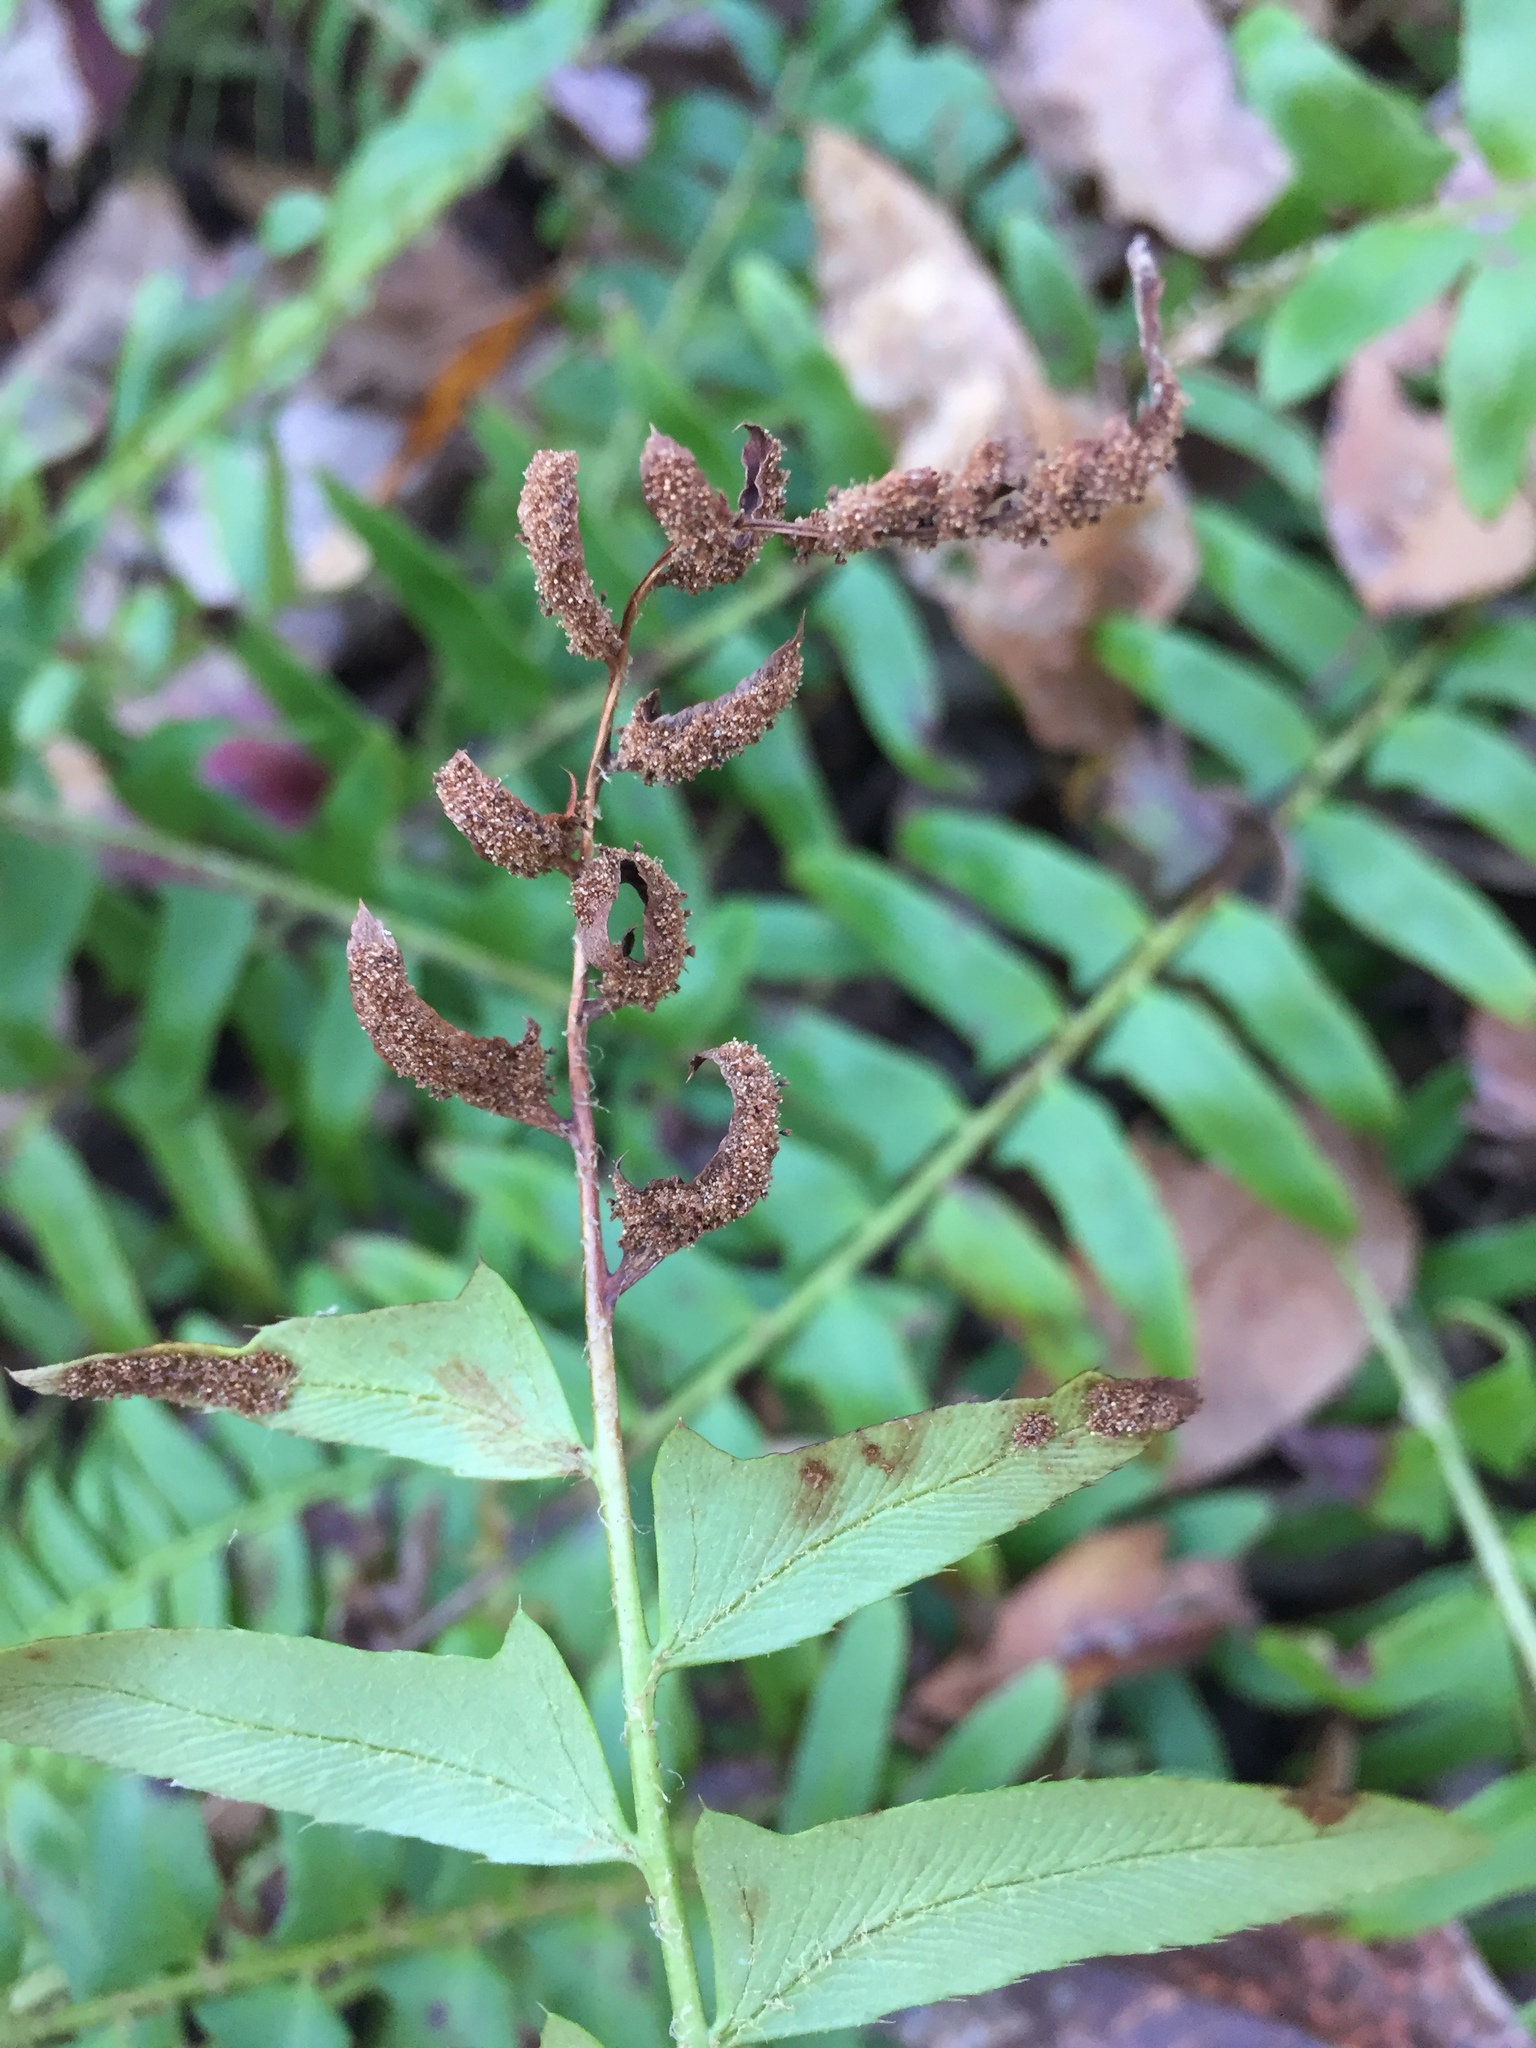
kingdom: Plantae
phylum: Tracheophyta
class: Polypodiopsida
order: Polypodiales
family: Dryopteridaceae
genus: Polystichum
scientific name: Polystichum acrostichoides
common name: Christmas fern
